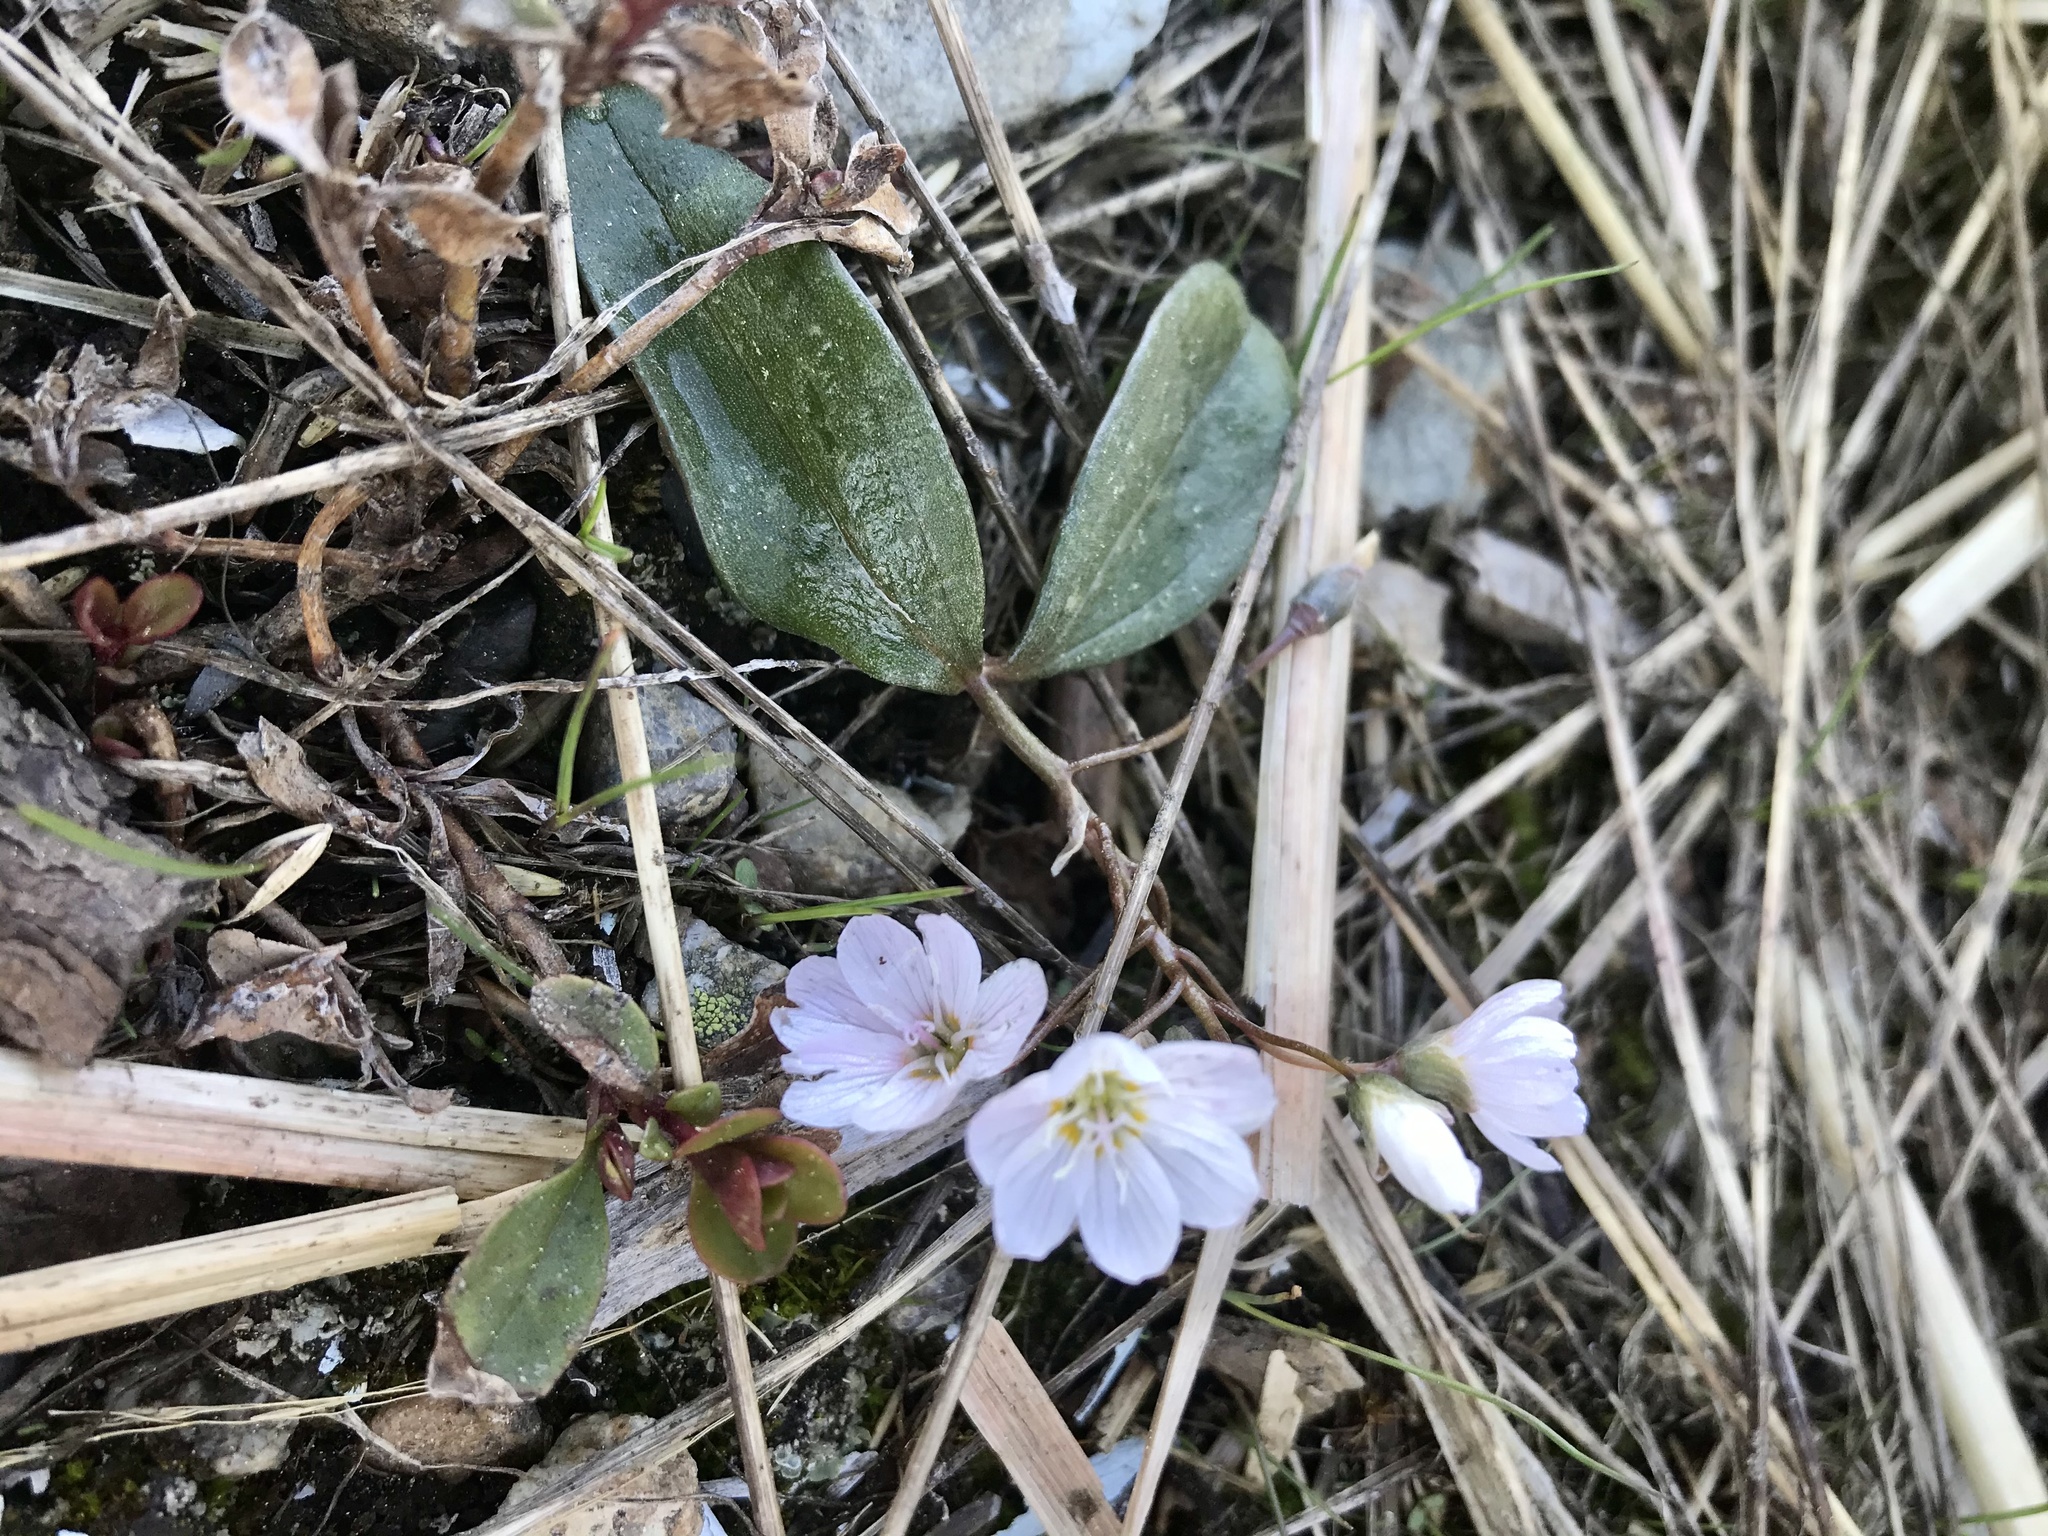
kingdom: Plantae
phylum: Tracheophyta
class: Magnoliopsida
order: Caryophyllales
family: Montiaceae
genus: Claytonia
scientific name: Claytonia lanceolata
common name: Western spring-beauty
